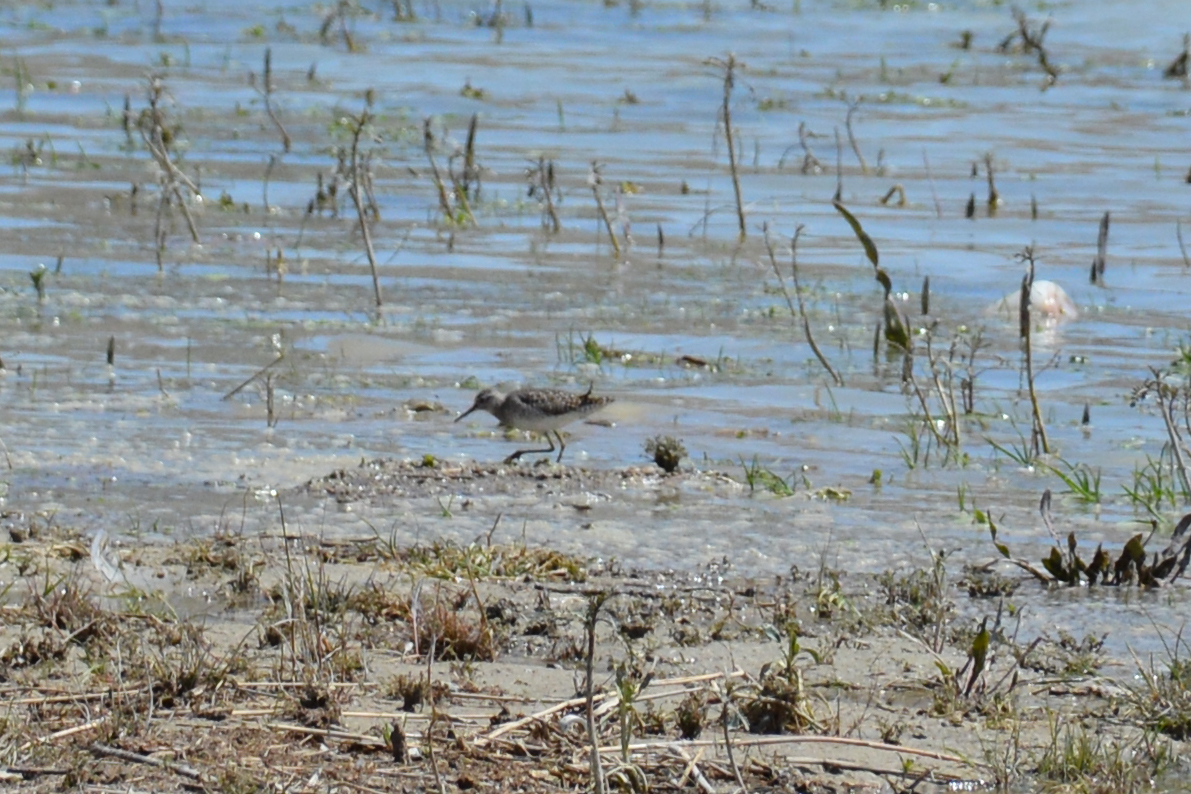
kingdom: Animalia
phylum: Chordata
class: Aves
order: Charadriiformes
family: Scolopacidae
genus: Tringa
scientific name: Tringa glareola
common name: Wood sandpiper
